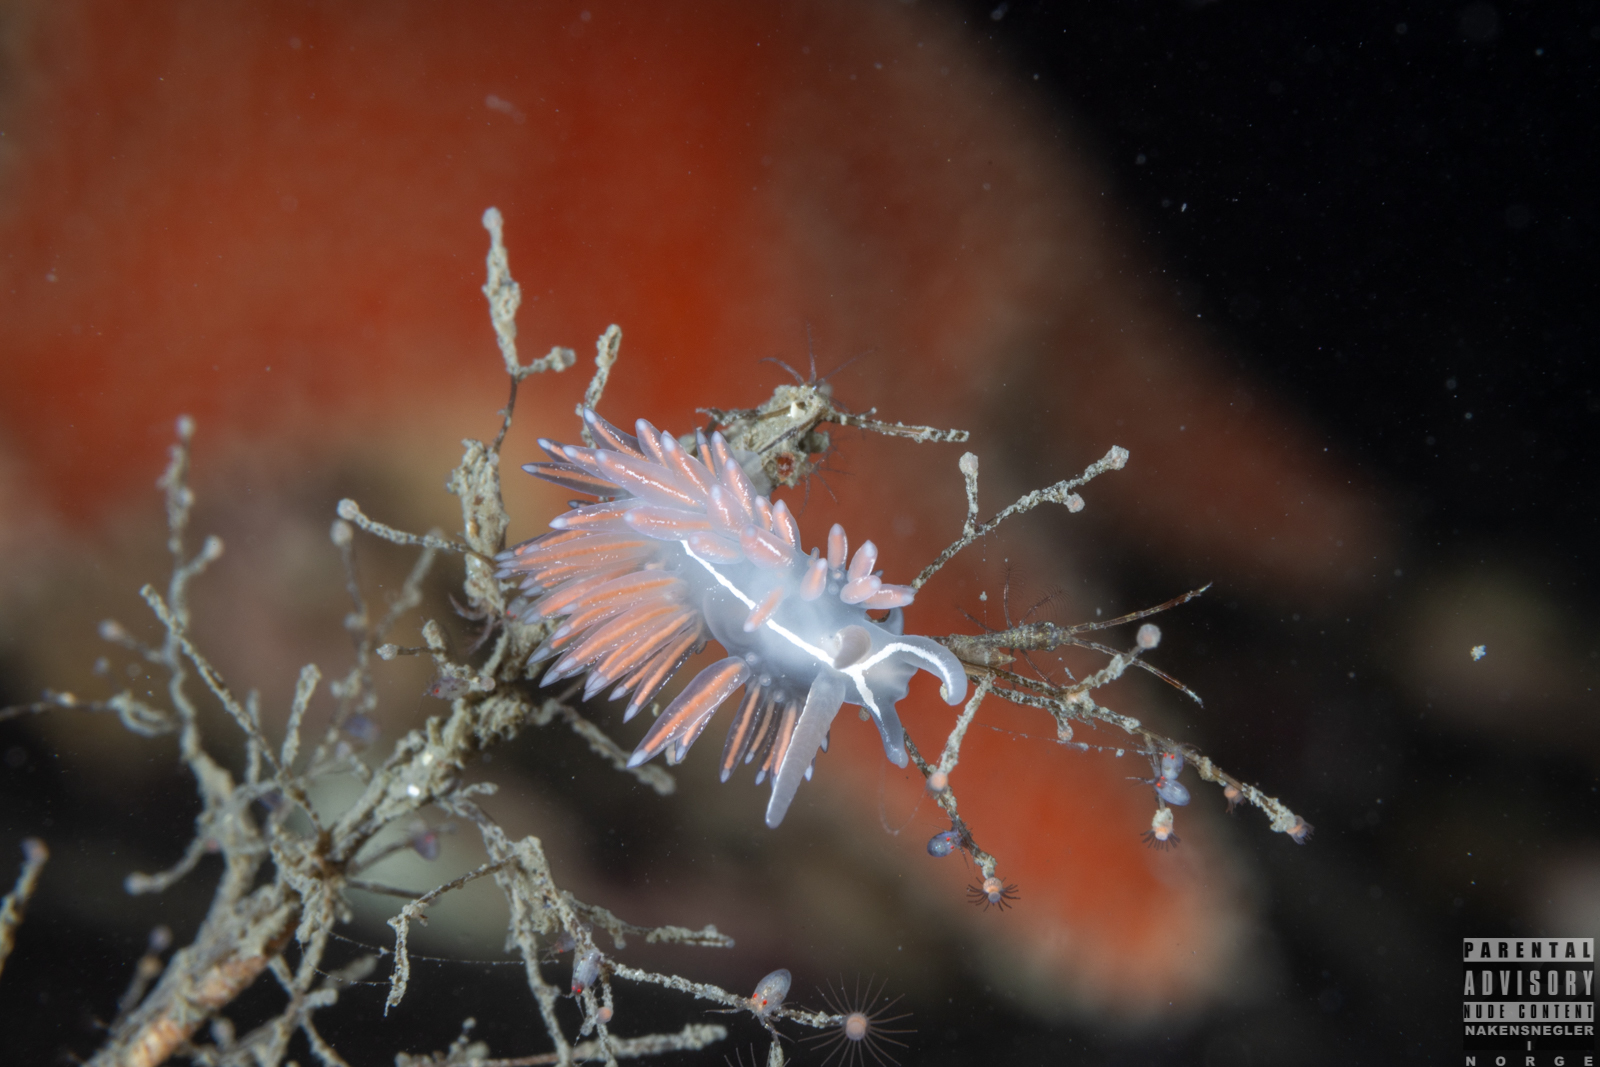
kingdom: Animalia
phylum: Mollusca
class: Gastropoda
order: Nudibranchia
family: Coryphellidae
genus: Coryphella
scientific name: Coryphella chriskaugei
